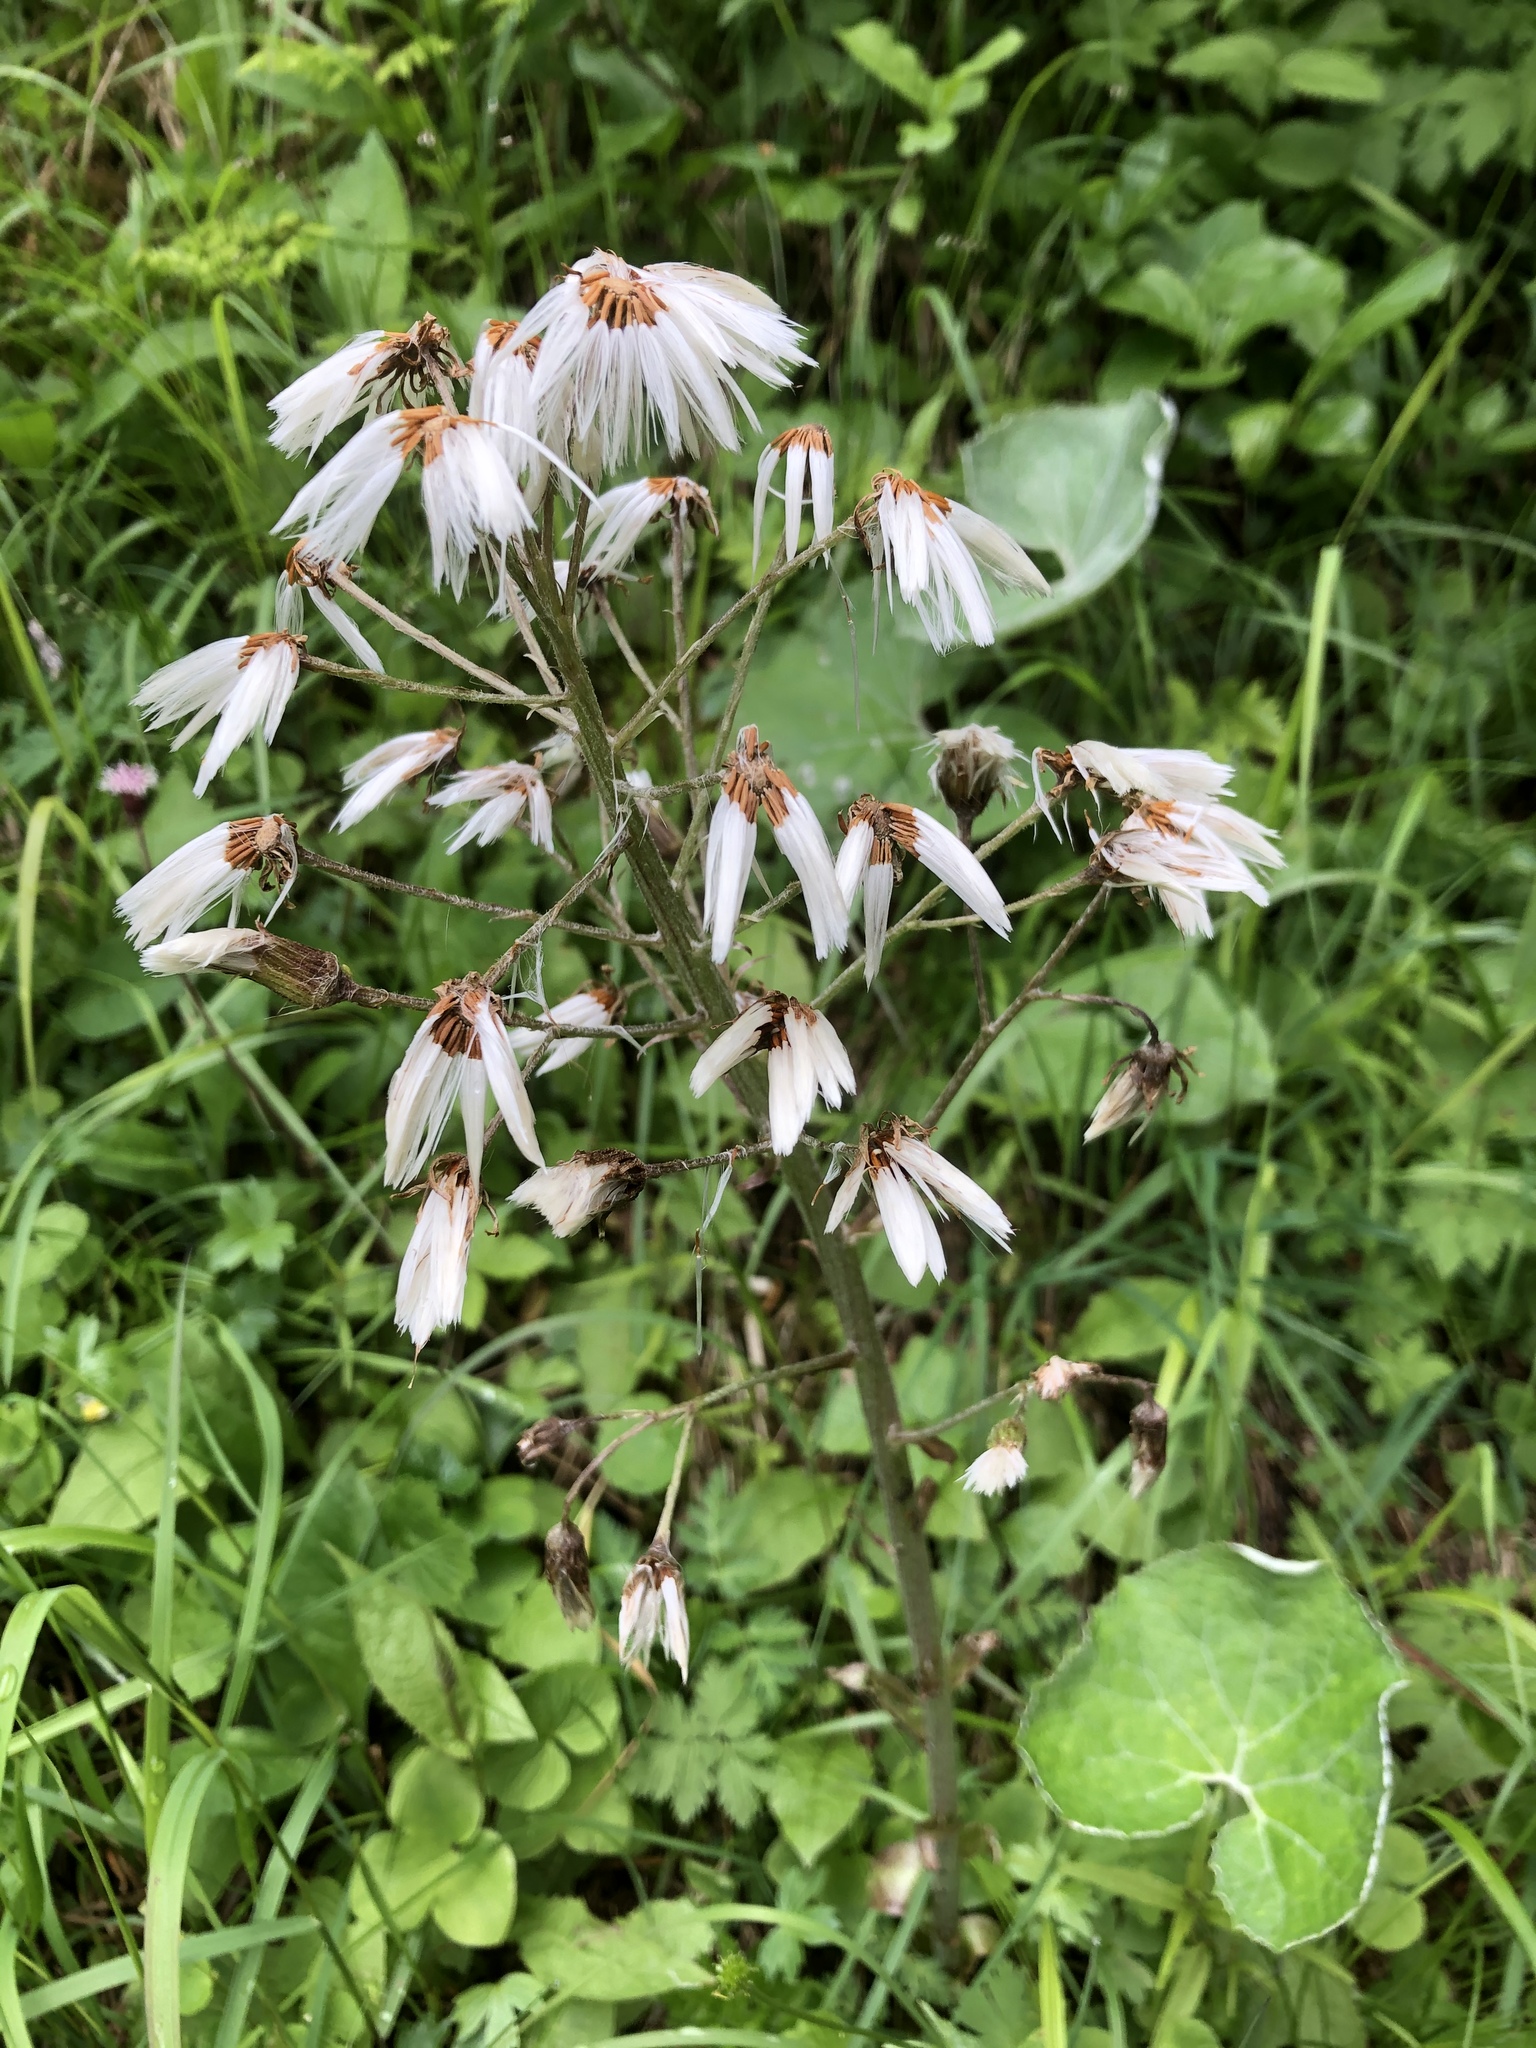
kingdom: Plantae
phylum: Tracheophyta
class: Magnoliopsida
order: Asterales
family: Asteraceae
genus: Petasites
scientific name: Petasites paradoxus
